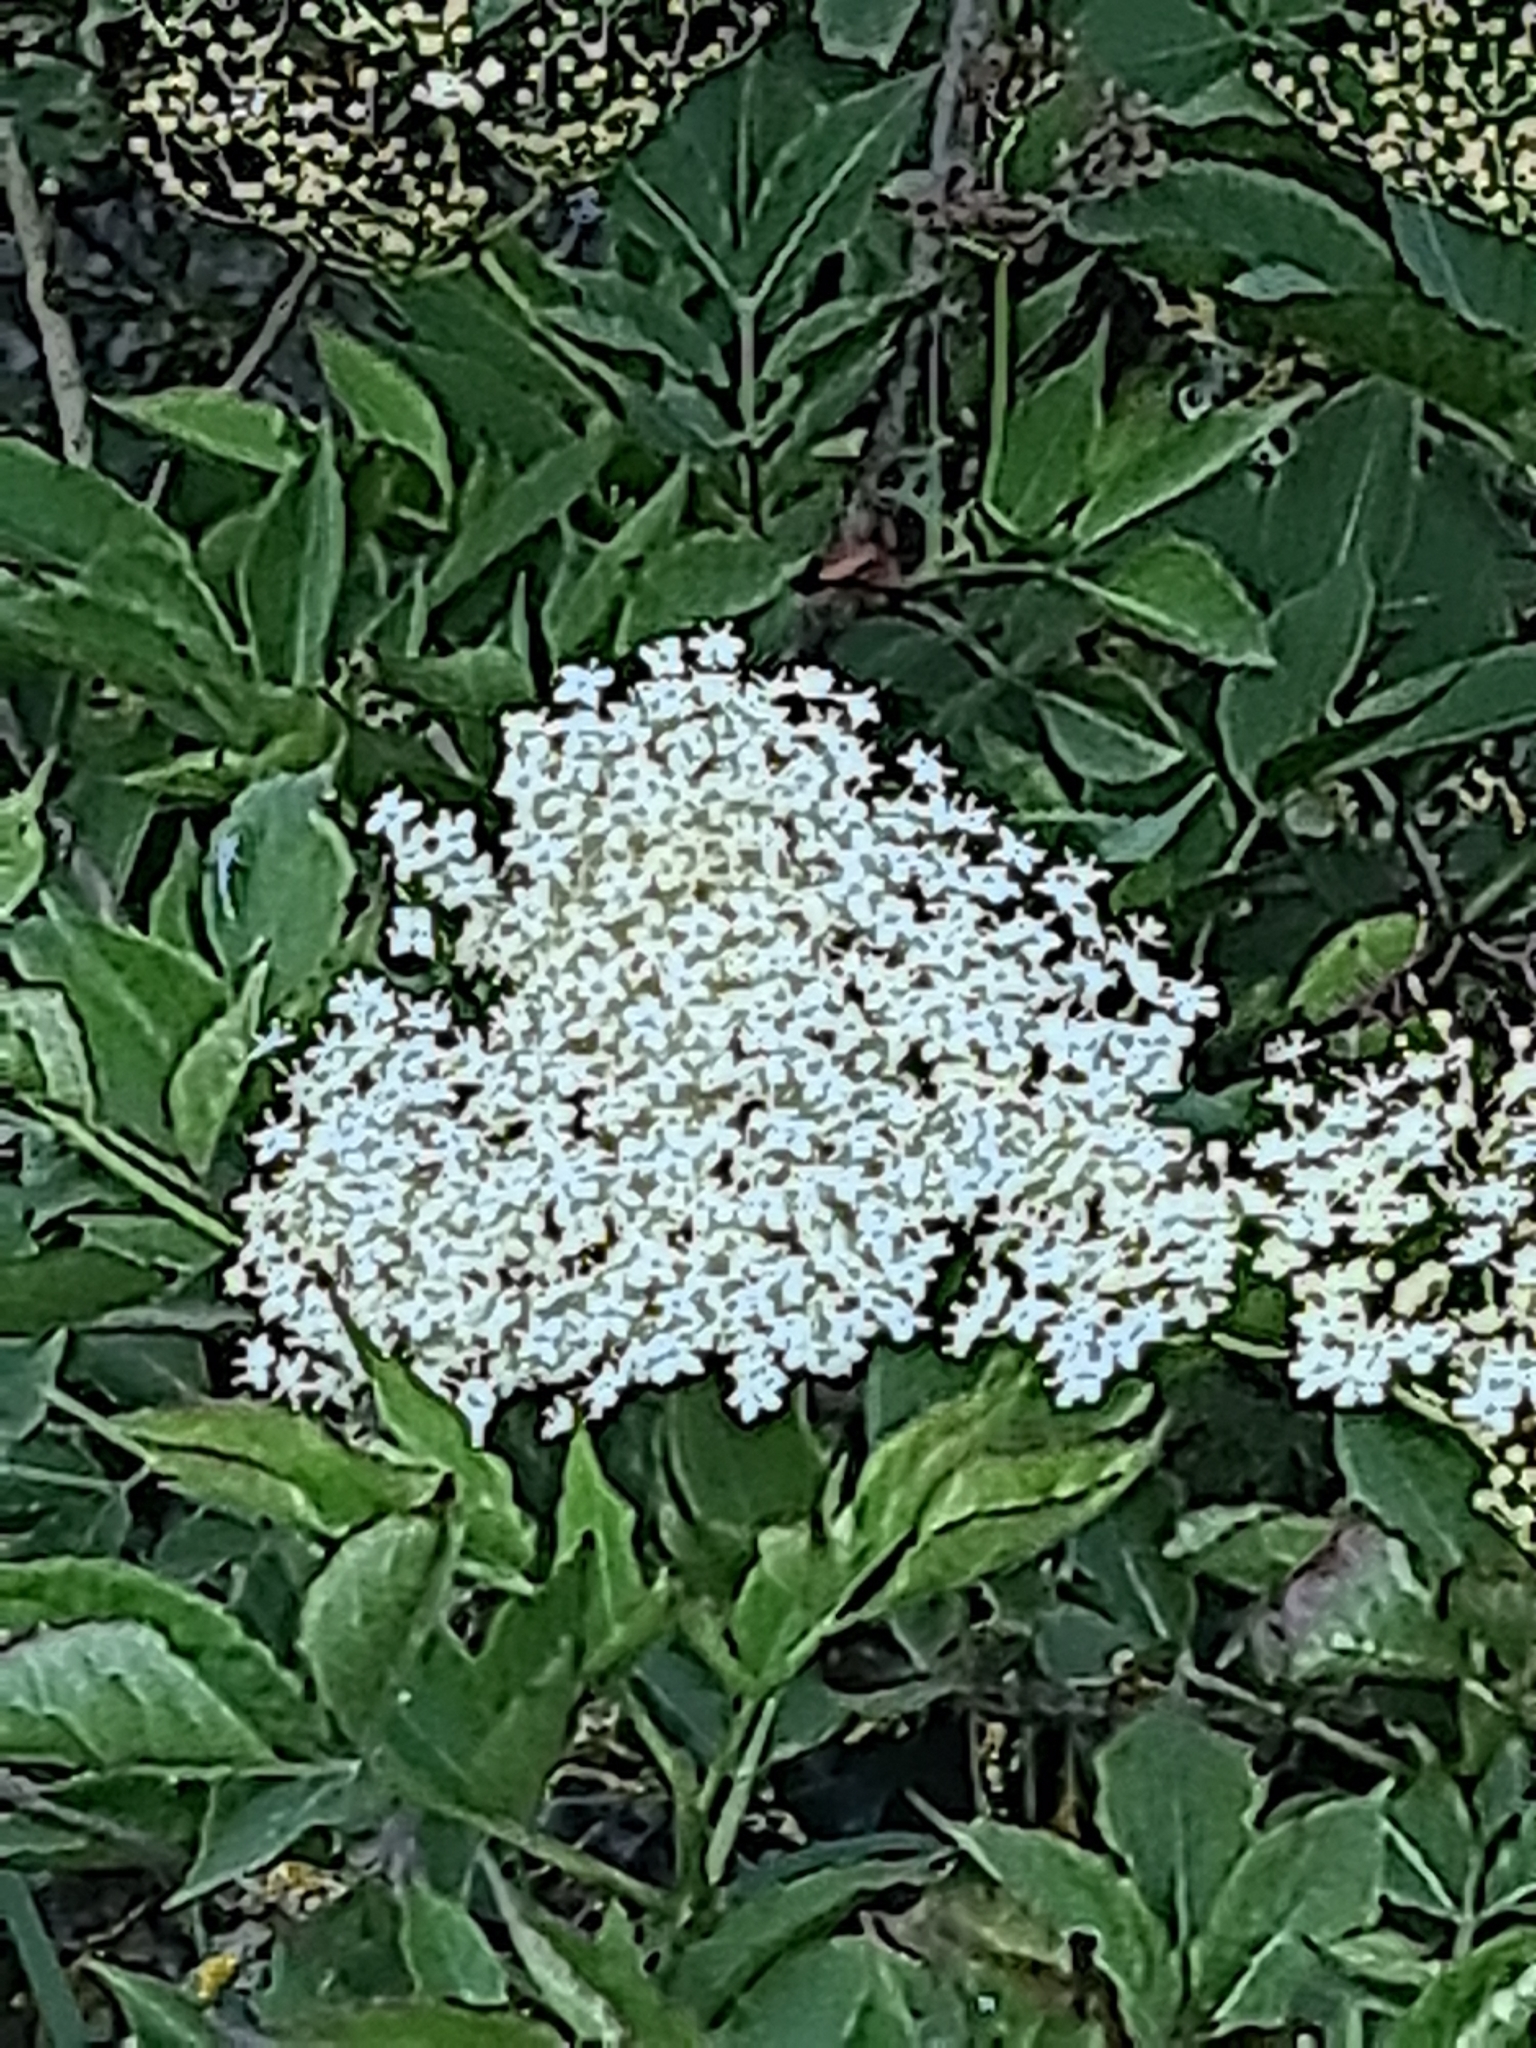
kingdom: Plantae
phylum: Tracheophyta
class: Magnoliopsida
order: Dipsacales
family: Viburnaceae
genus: Sambucus
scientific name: Sambucus nigra
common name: Elder
